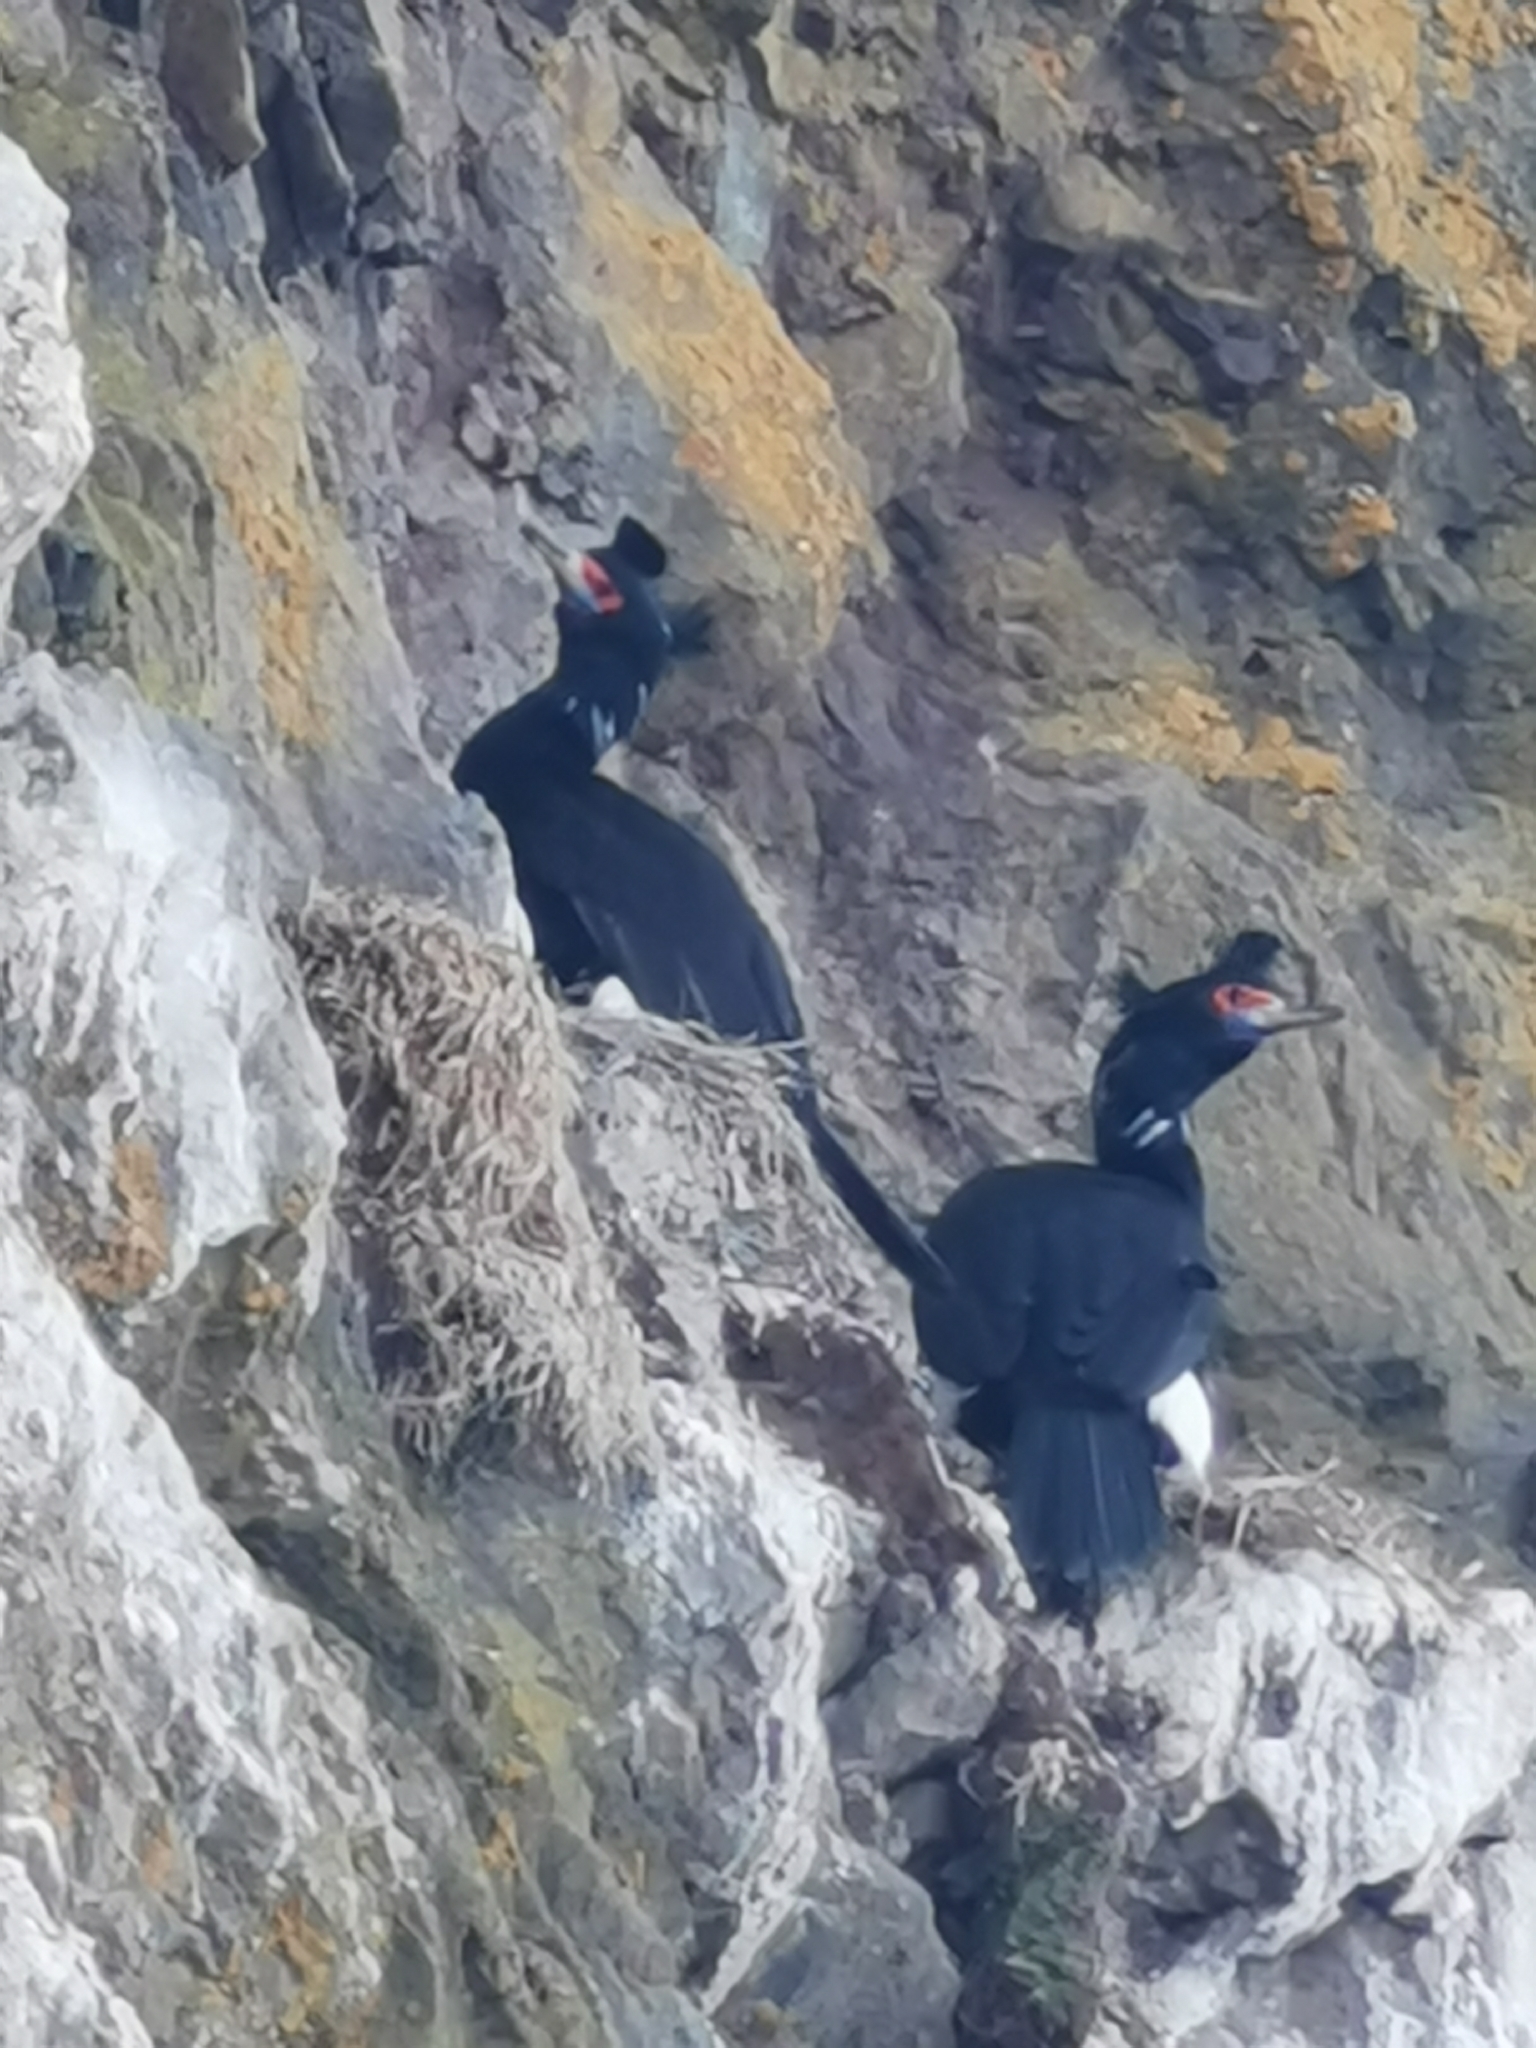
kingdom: Animalia
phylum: Chordata
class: Aves
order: Suliformes
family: Phalacrocoracidae
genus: Phalacrocorax
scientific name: Phalacrocorax urile
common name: Red-faced cormorant
